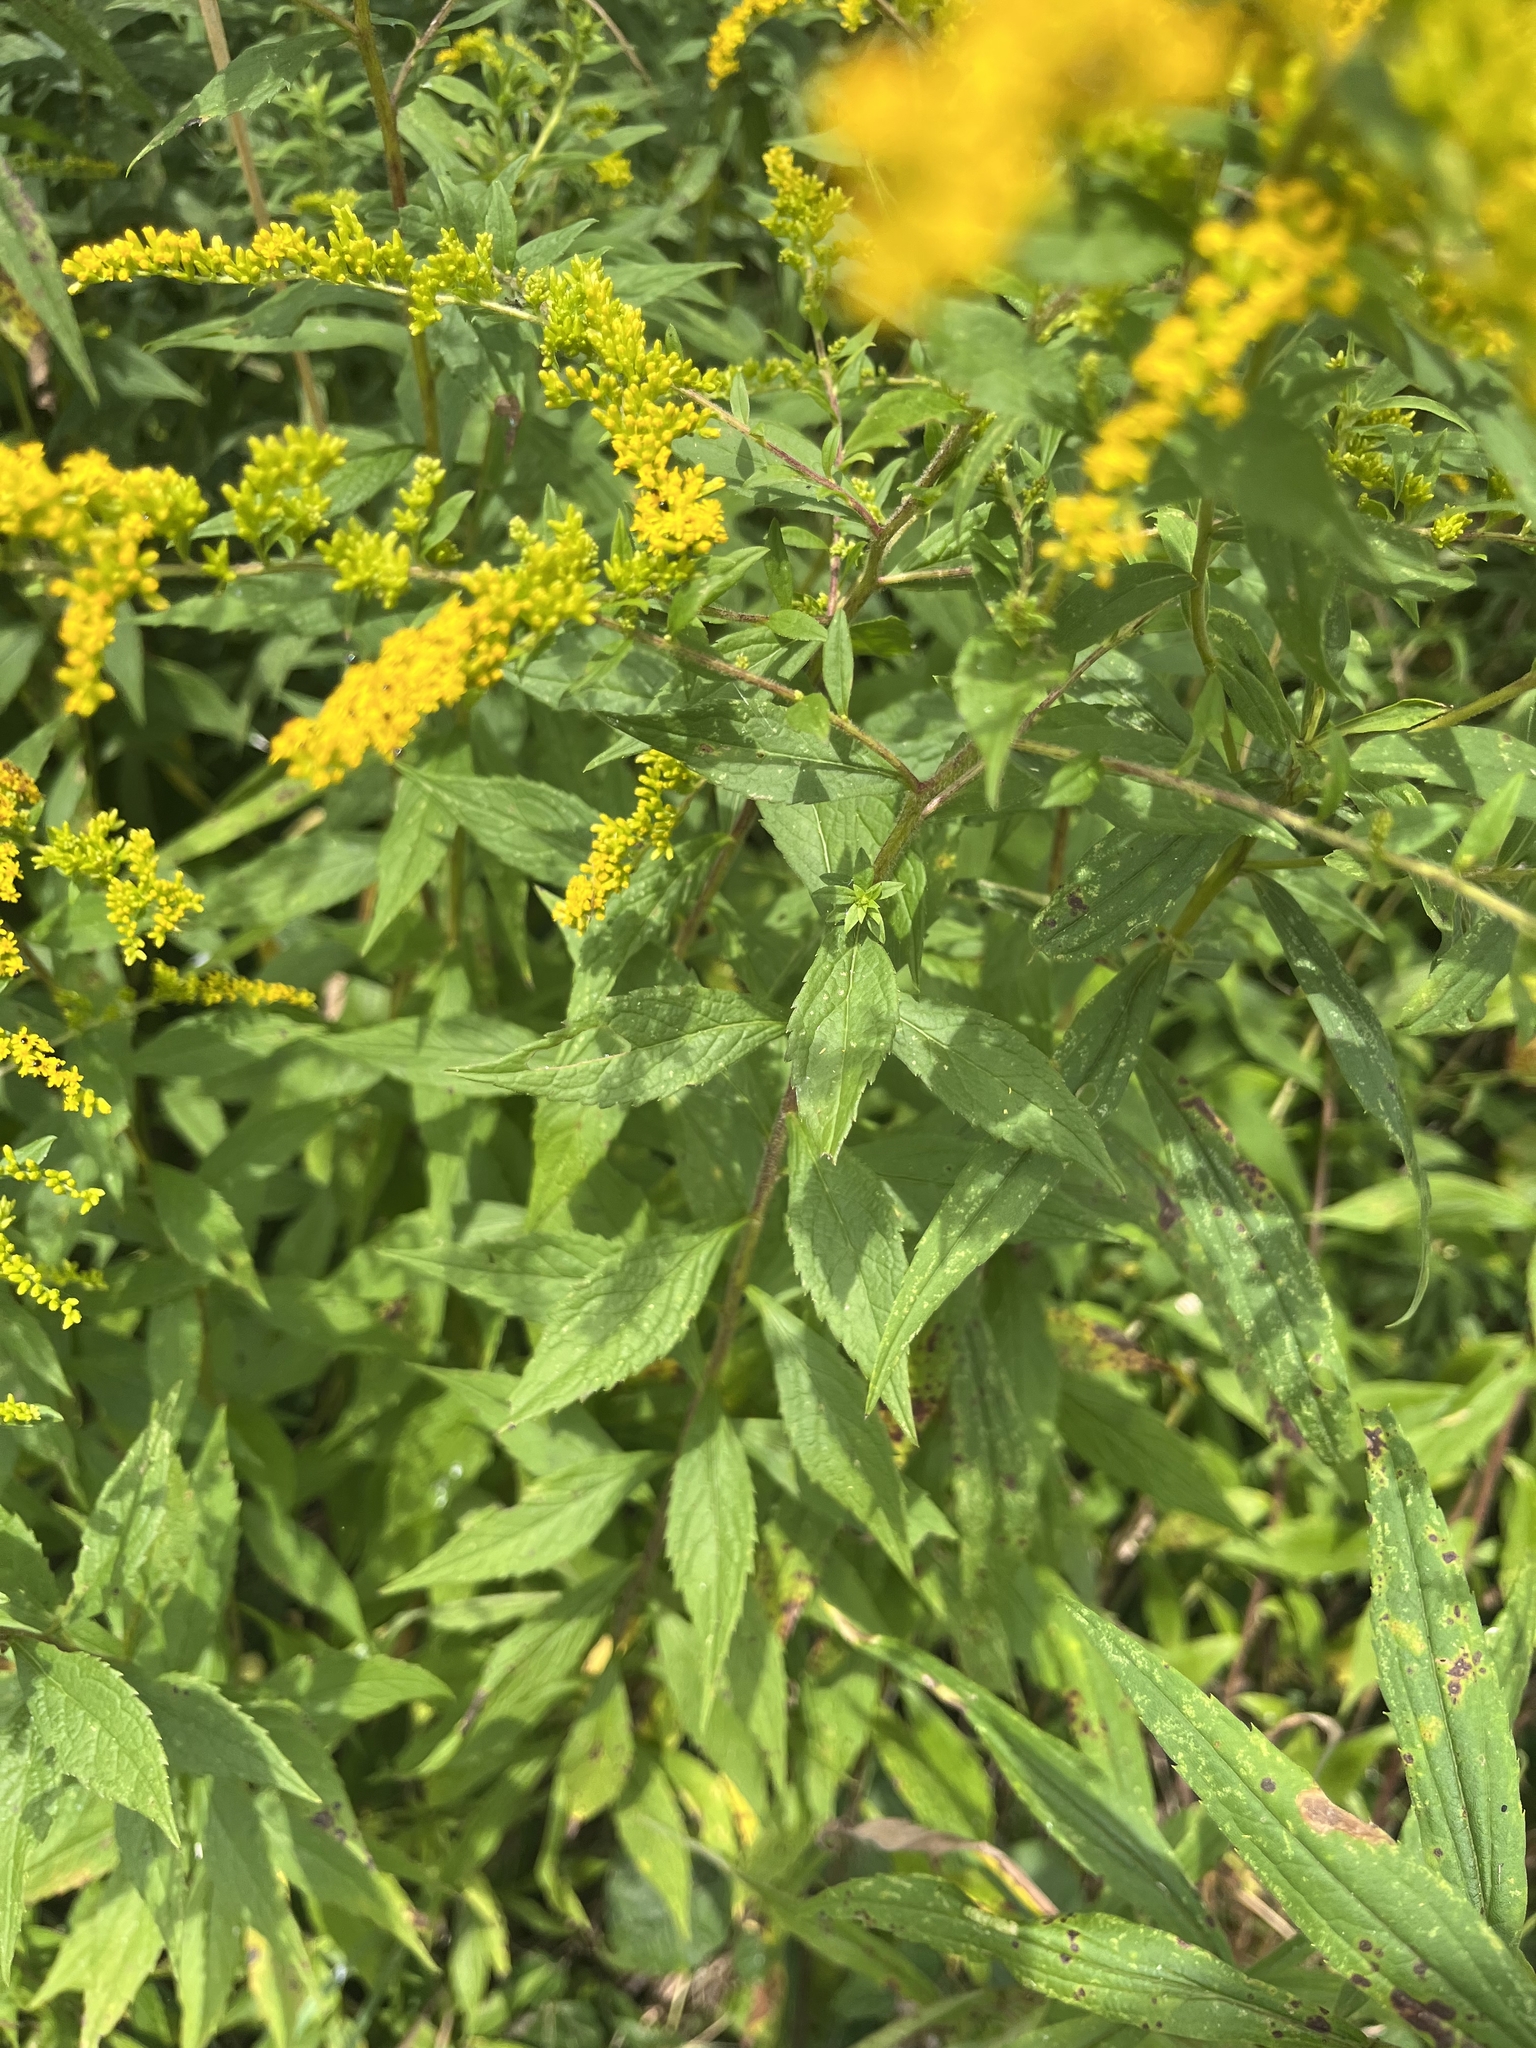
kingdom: Plantae
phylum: Tracheophyta
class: Magnoliopsida
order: Asterales
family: Asteraceae
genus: Solidago
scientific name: Solidago rugosa
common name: Rough-stemmed goldenrod
